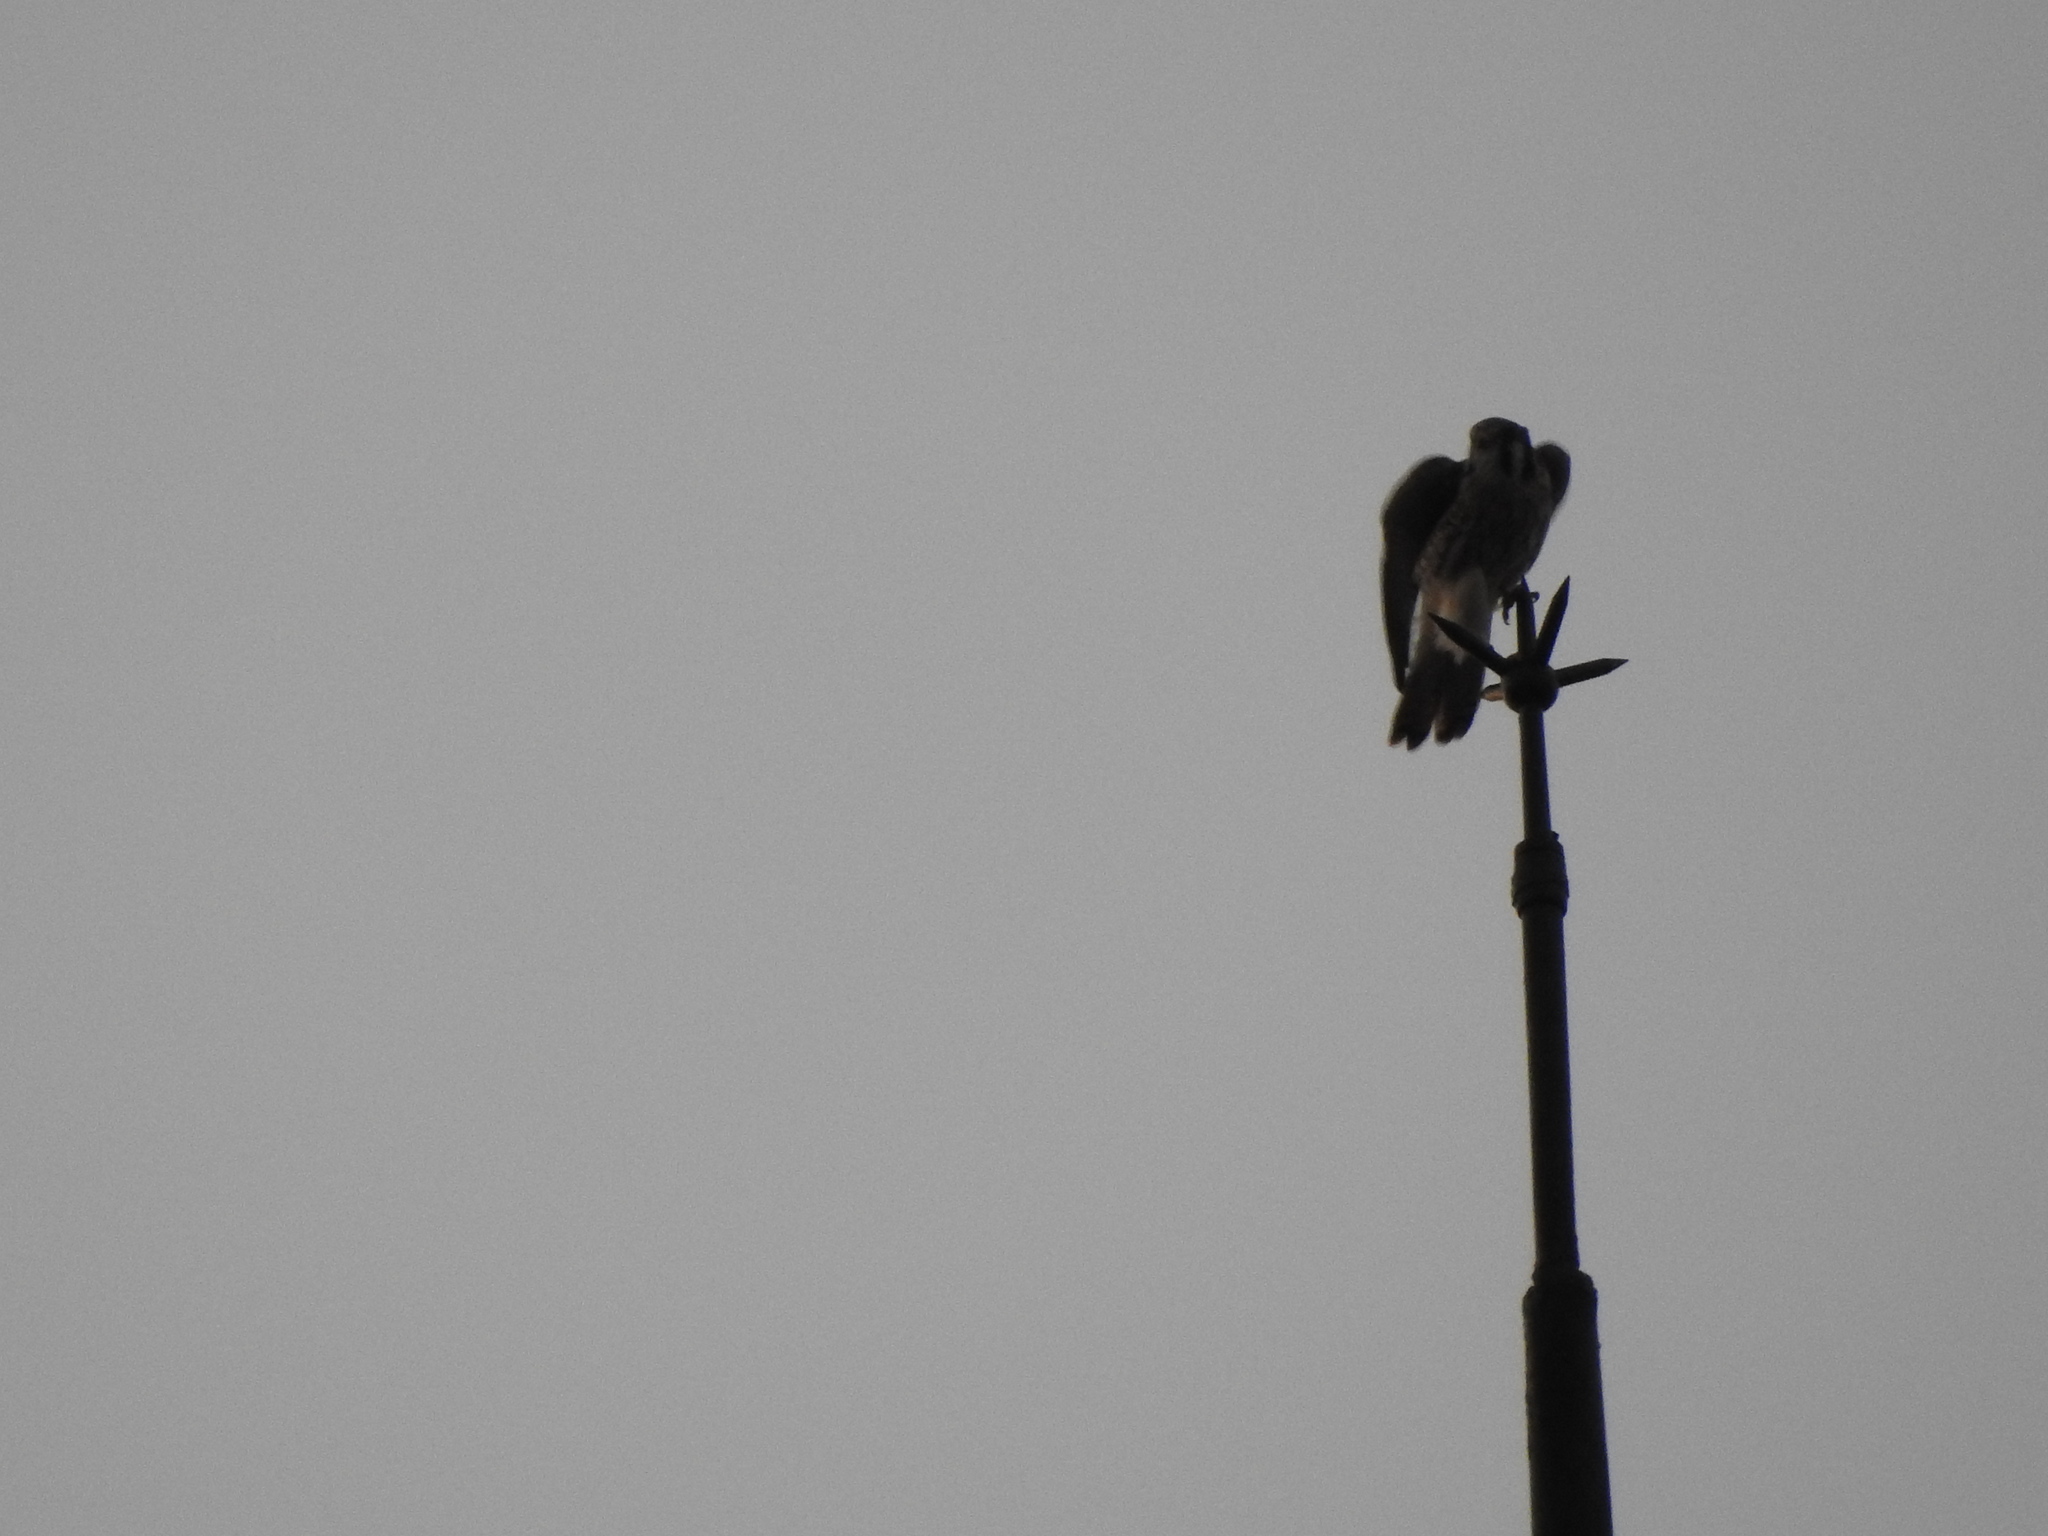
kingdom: Animalia
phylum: Chordata
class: Aves
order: Falconiformes
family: Falconidae
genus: Falco
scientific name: Falco sparverius
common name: American kestrel
